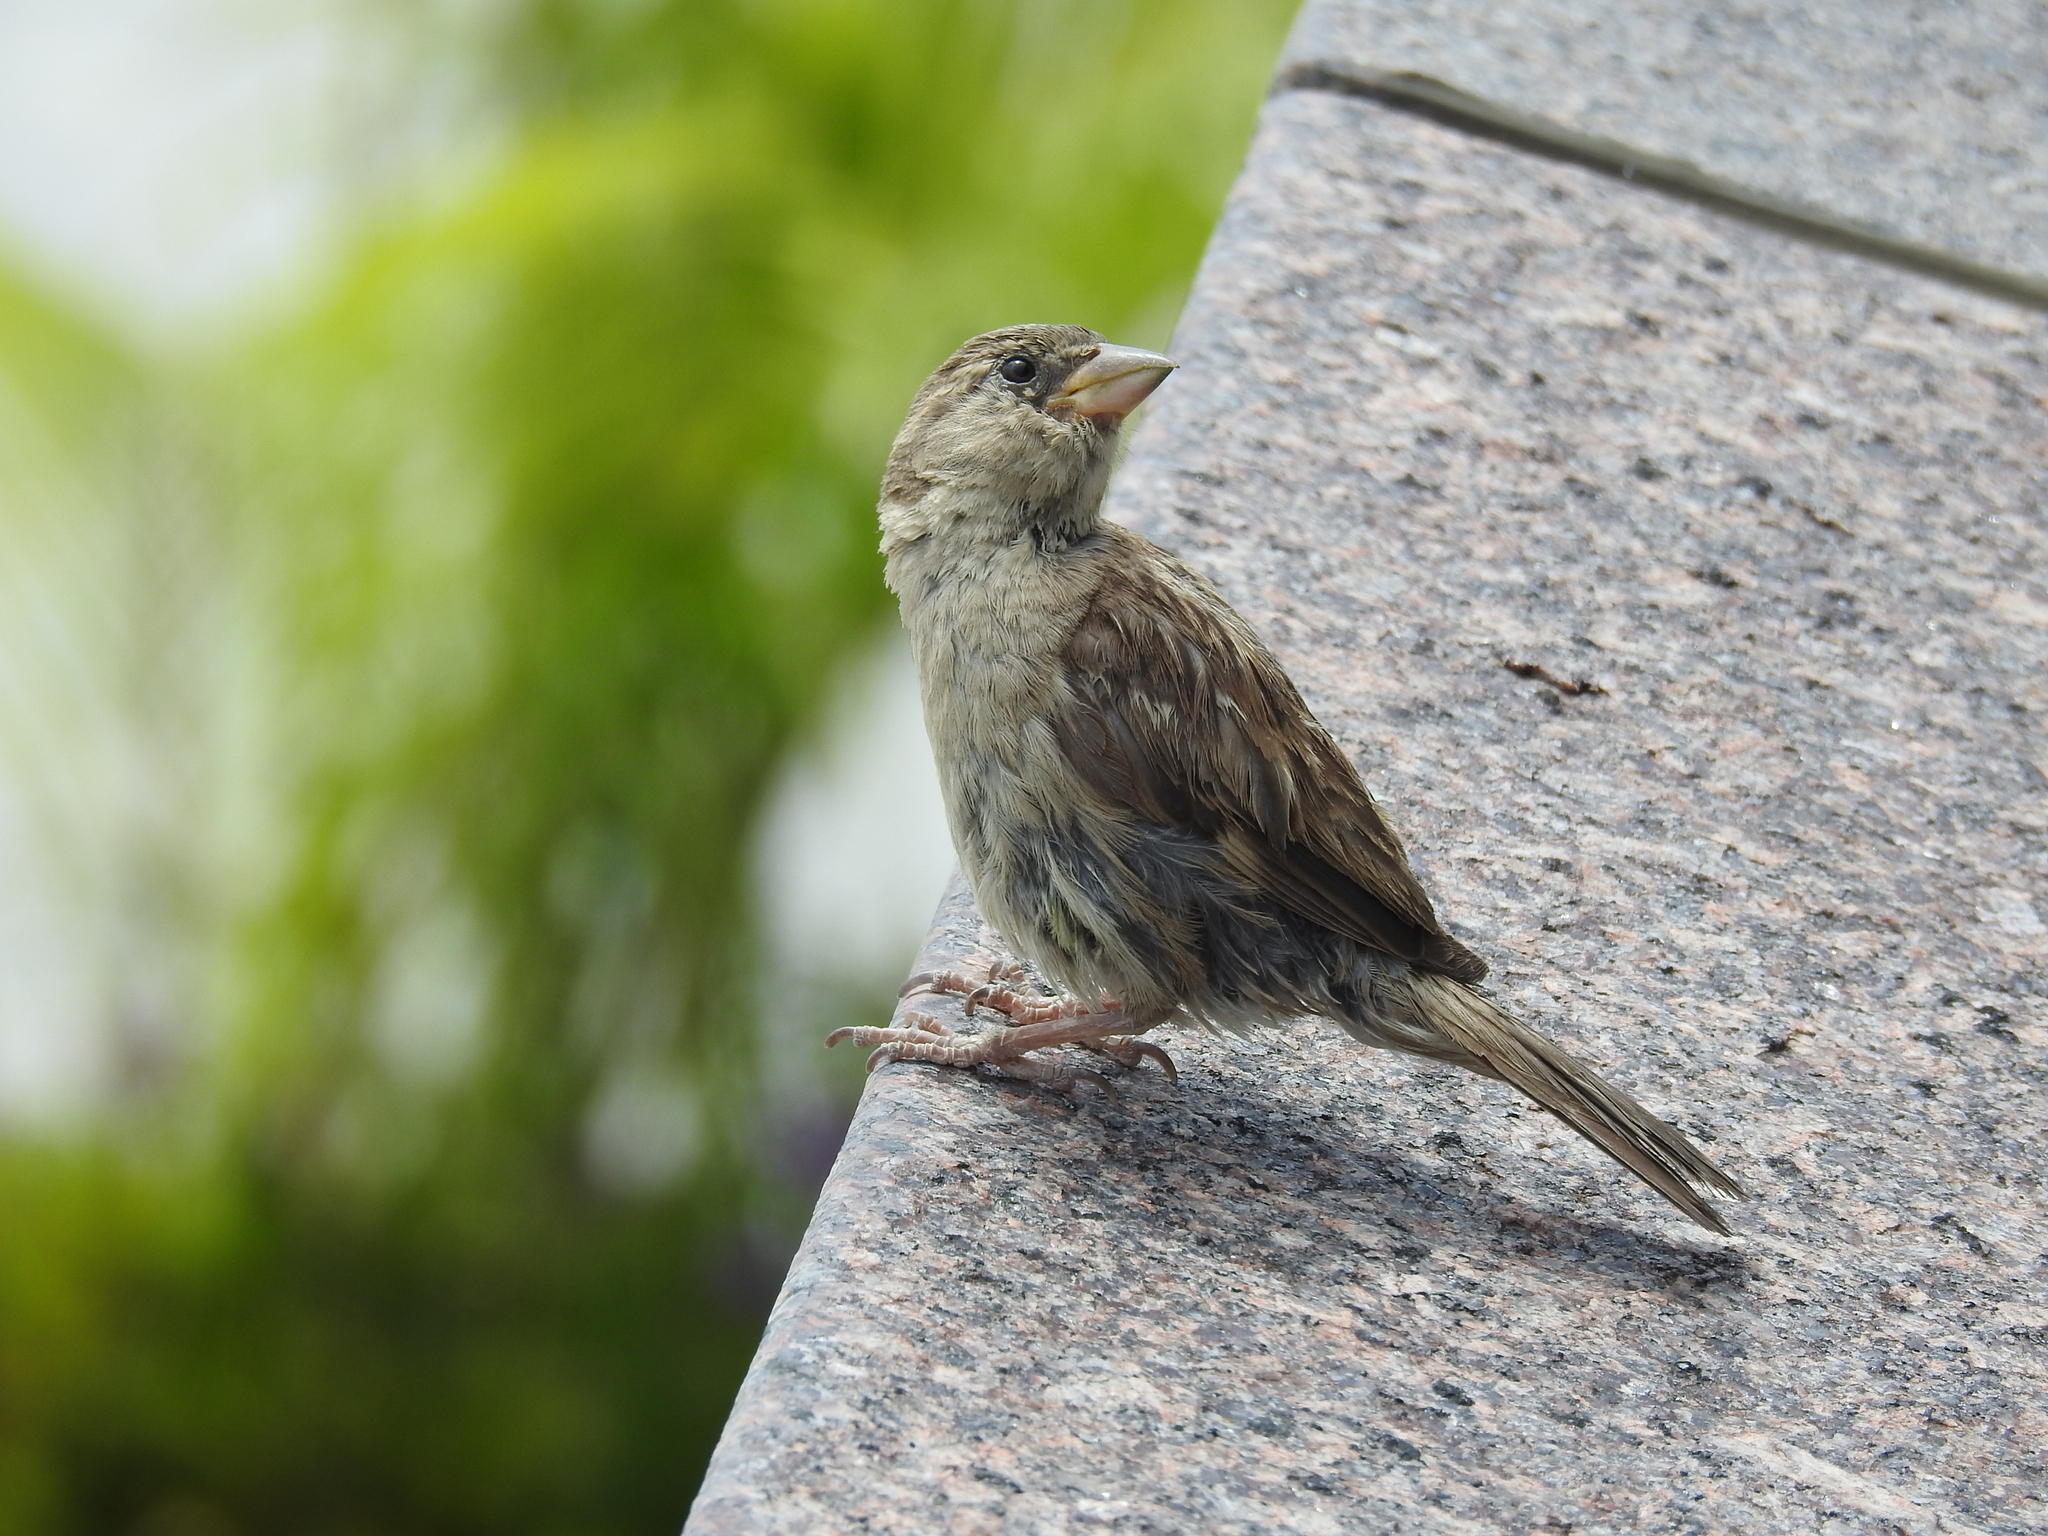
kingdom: Animalia
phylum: Chordata
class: Aves
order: Passeriformes
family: Passeridae
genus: Passer
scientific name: Passer domesticus
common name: House sparrow
